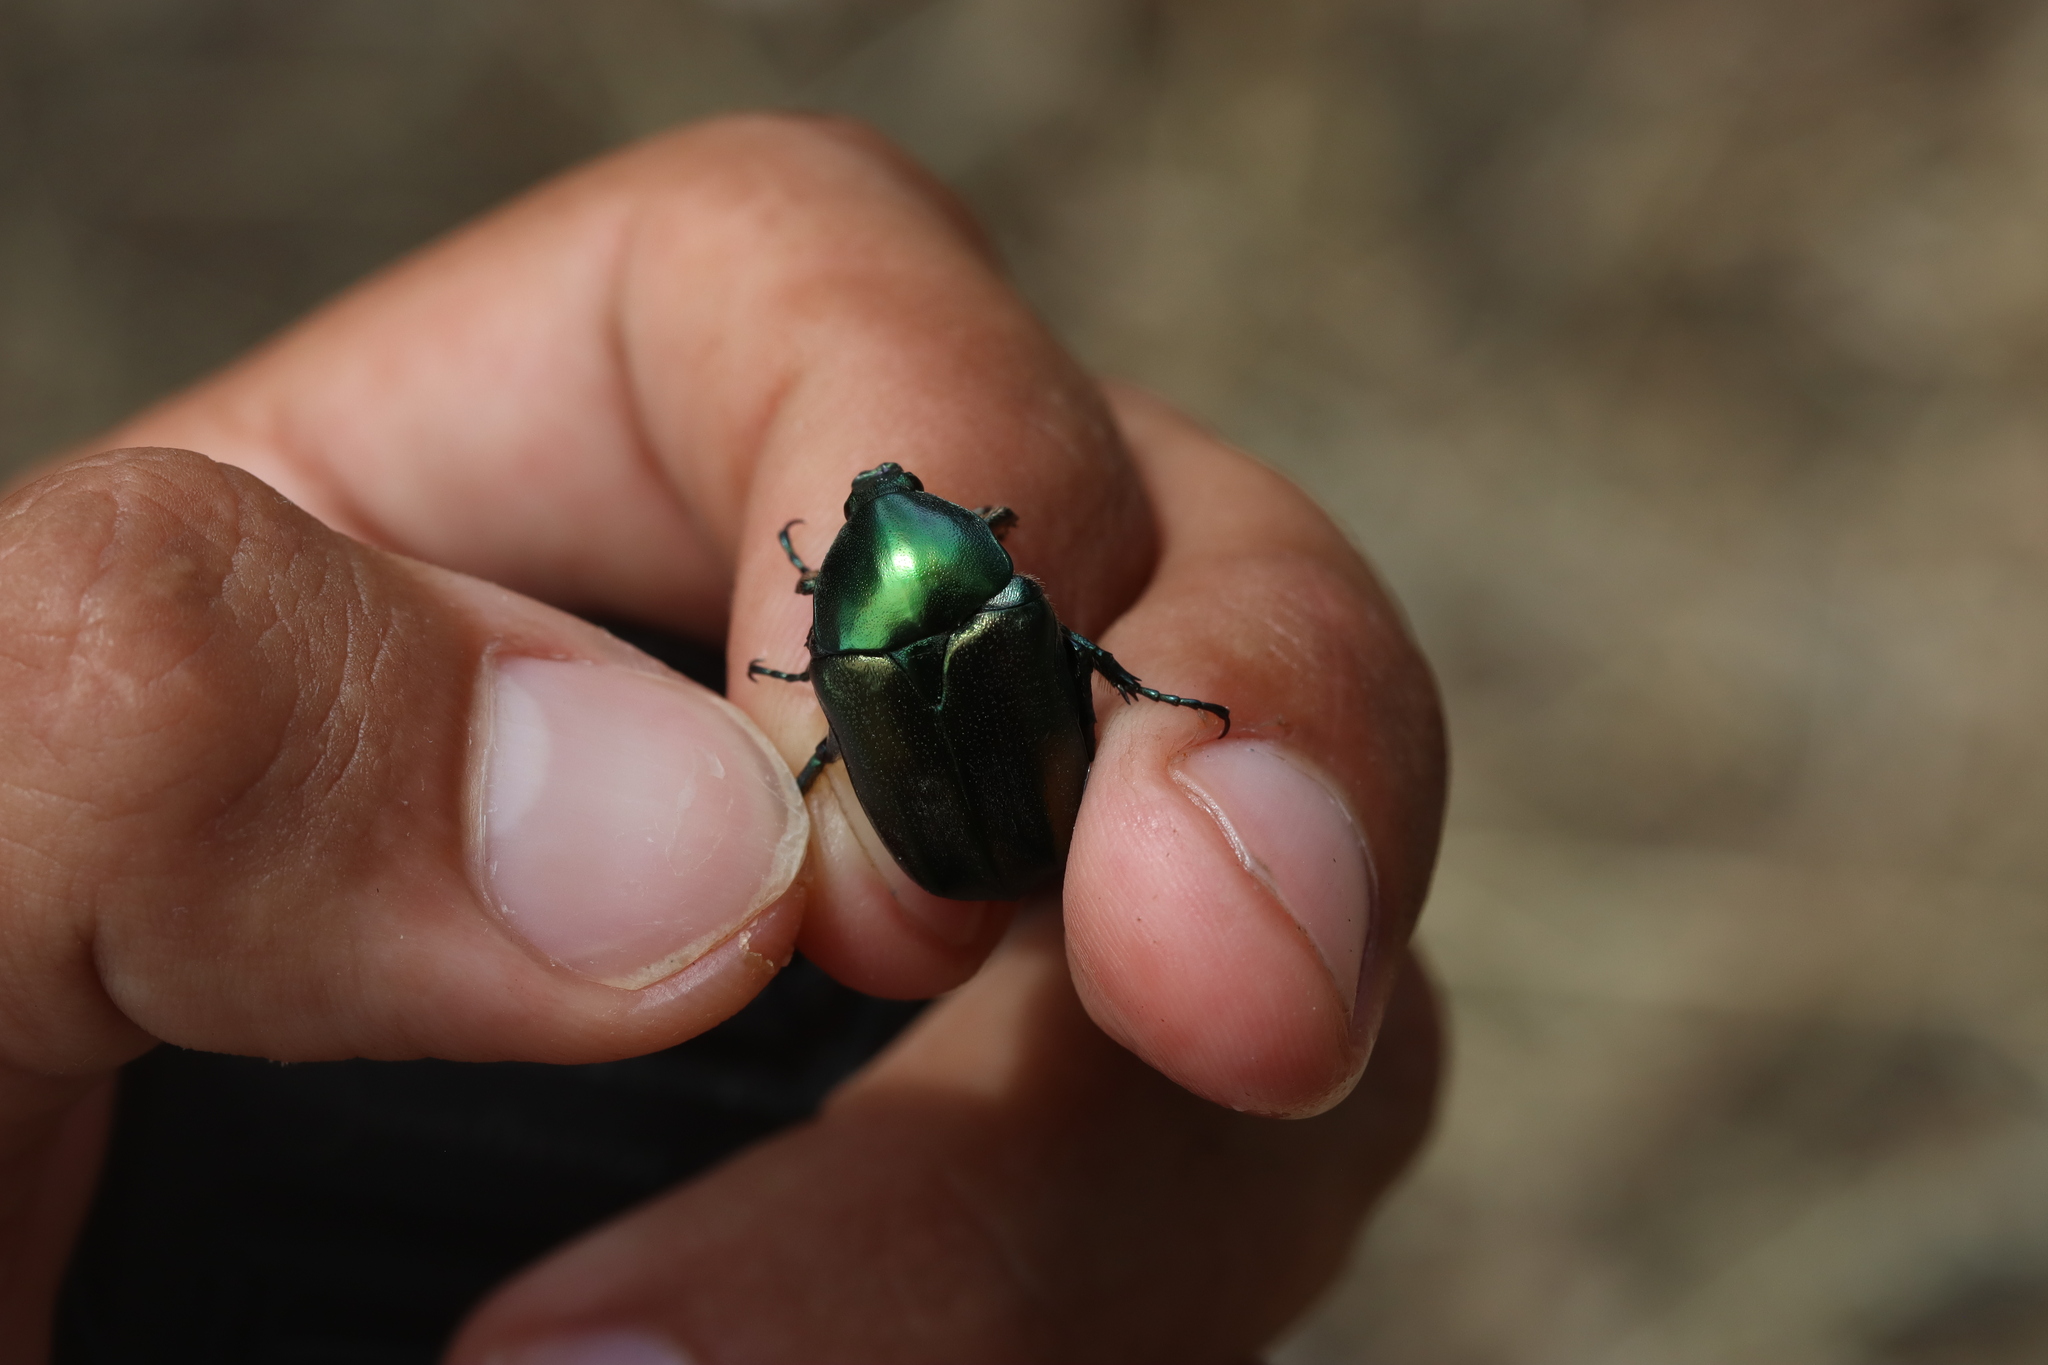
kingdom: Animalia
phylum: Arthropoda
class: Insecta
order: Coleoptera
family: Scarabaeidae
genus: Protaetia
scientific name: Protaetia angustata
